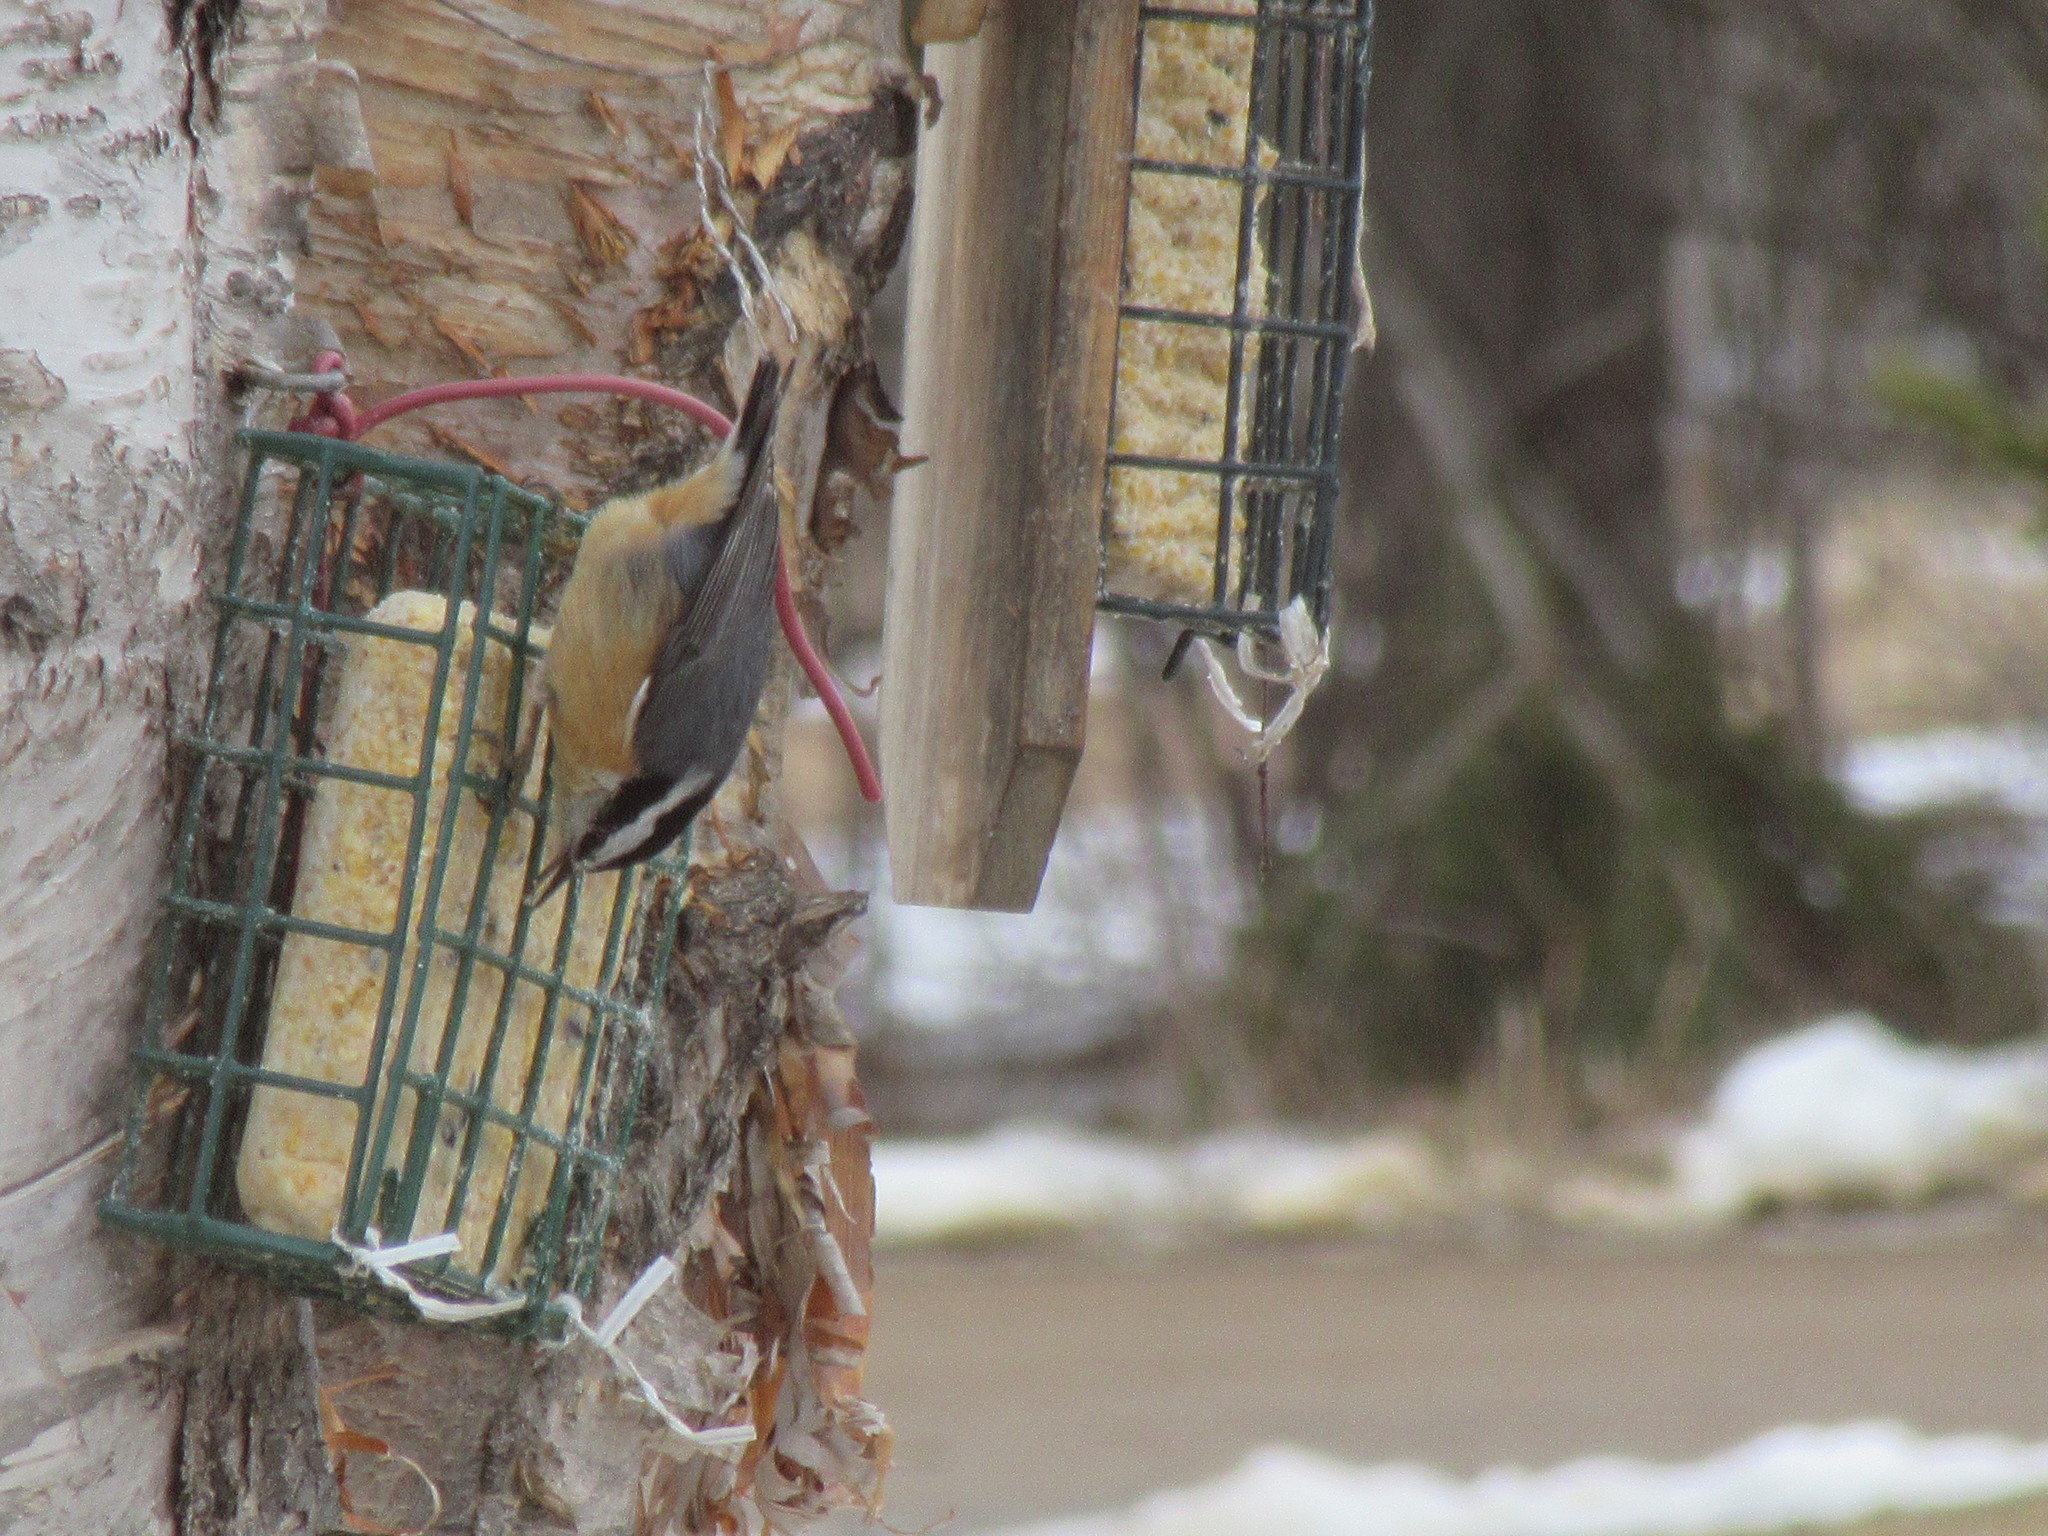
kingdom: Animalia
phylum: Chordata
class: Aves
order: Passeriformes
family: Sittidae
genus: Sitta
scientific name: Sitta canadensis
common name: Red-breasted nuthatch
